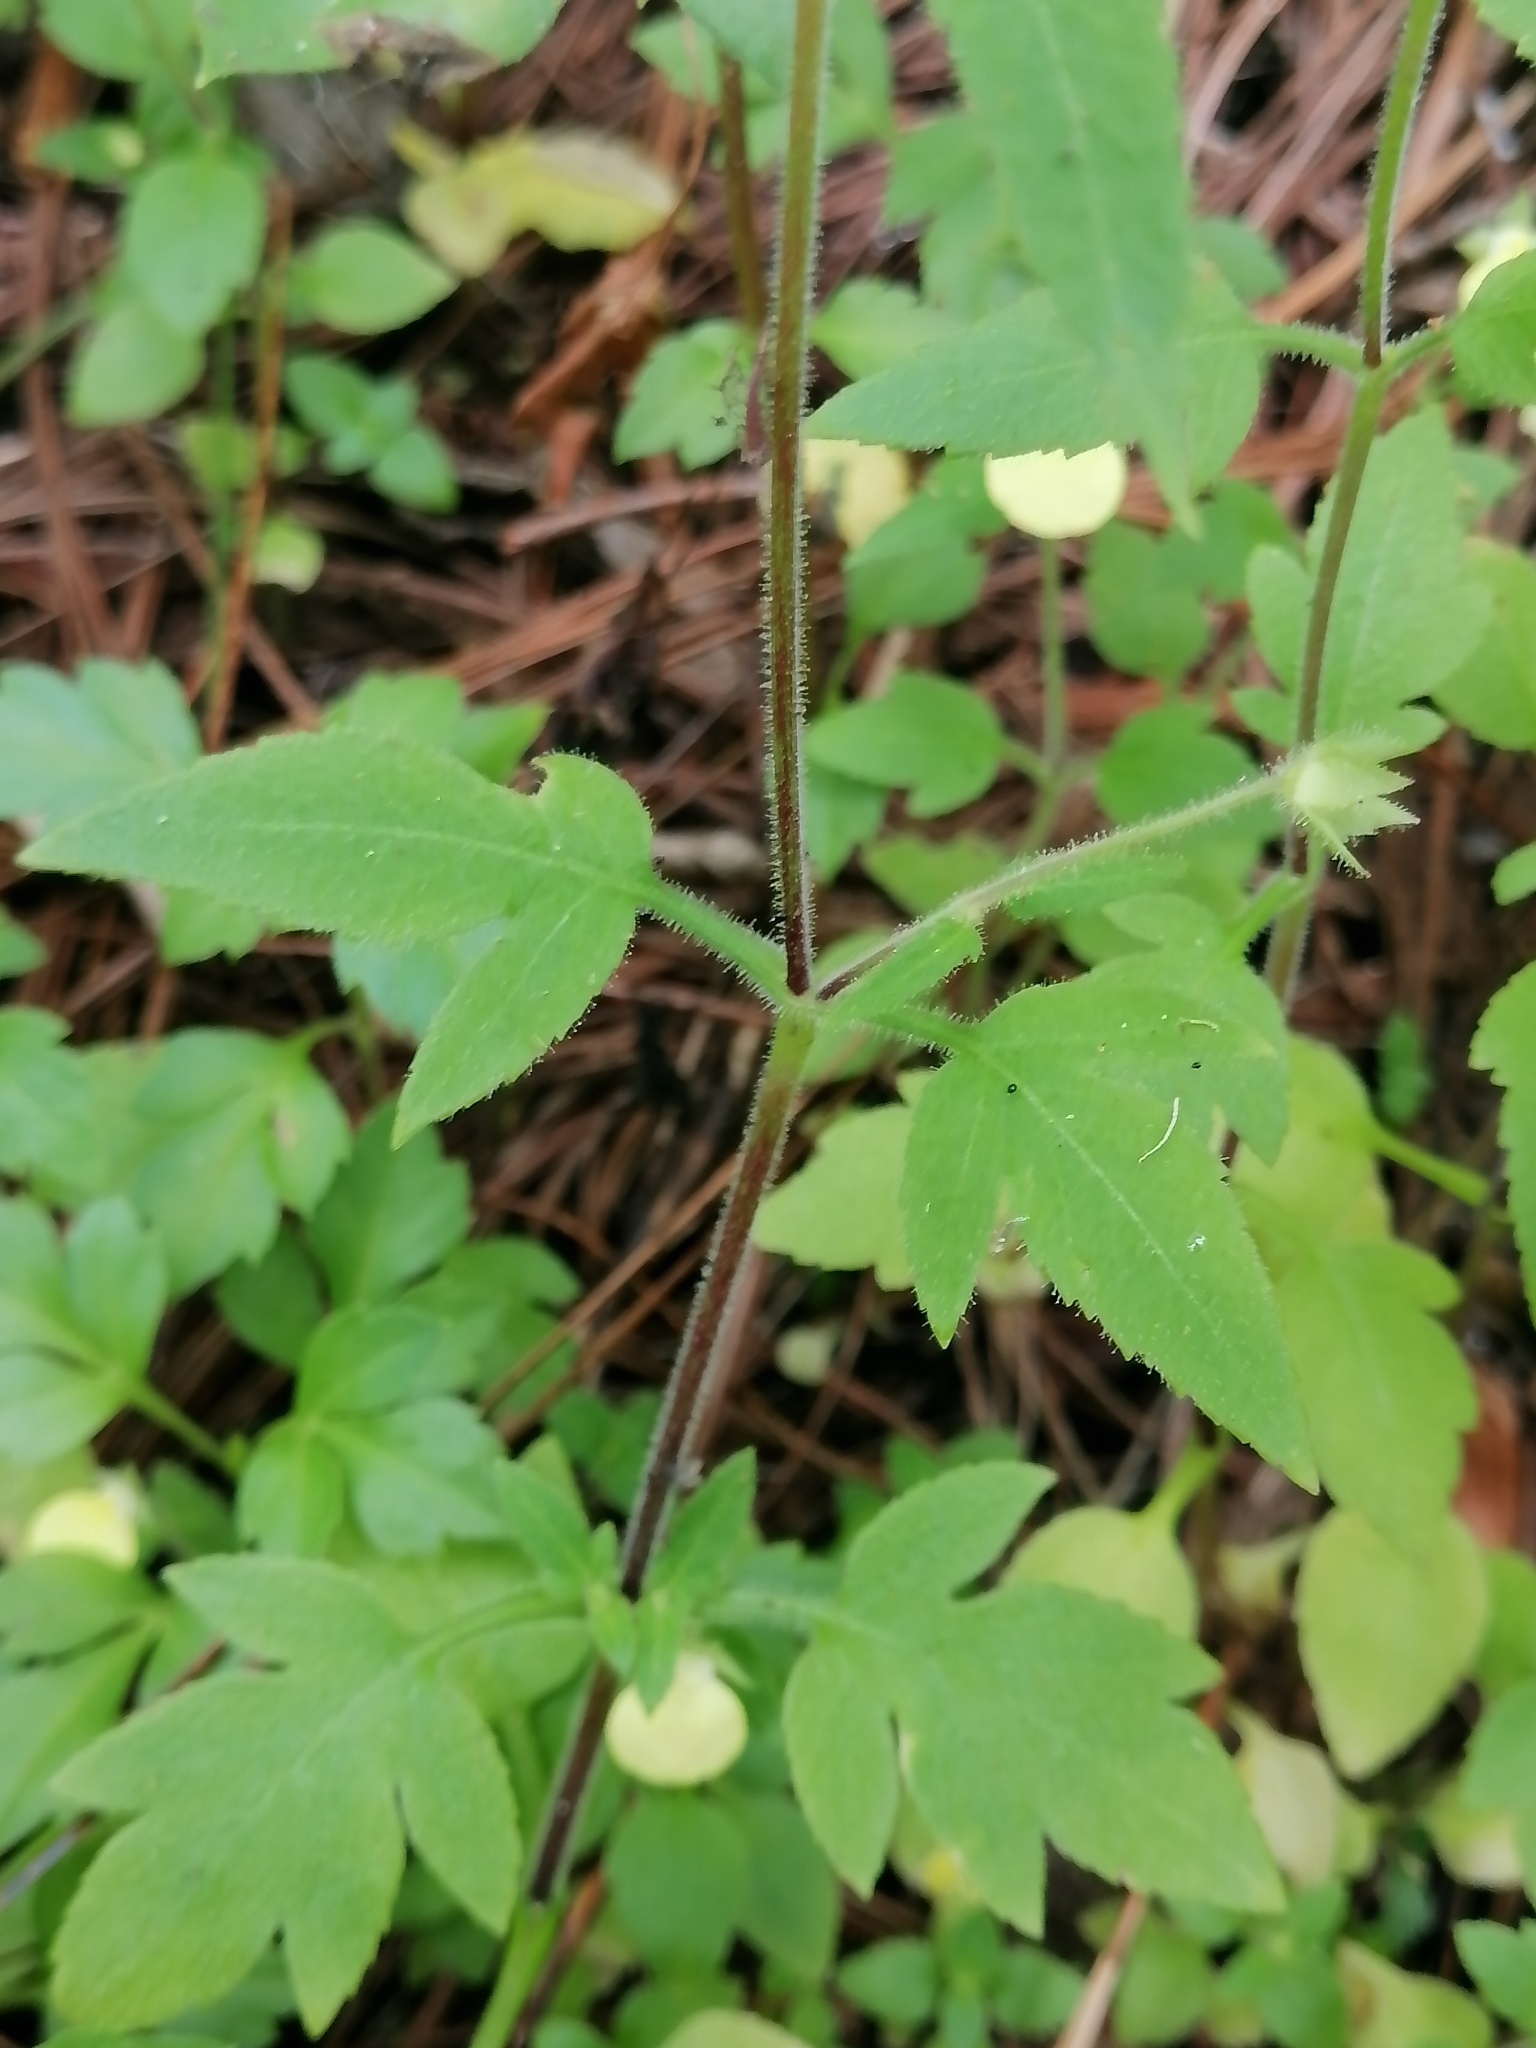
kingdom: Plantae
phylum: Tracheophyta
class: Magnoliopsida
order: Lamiales
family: Calceolariaceae
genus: Calceolaria
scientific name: Calceolaria tripartita
